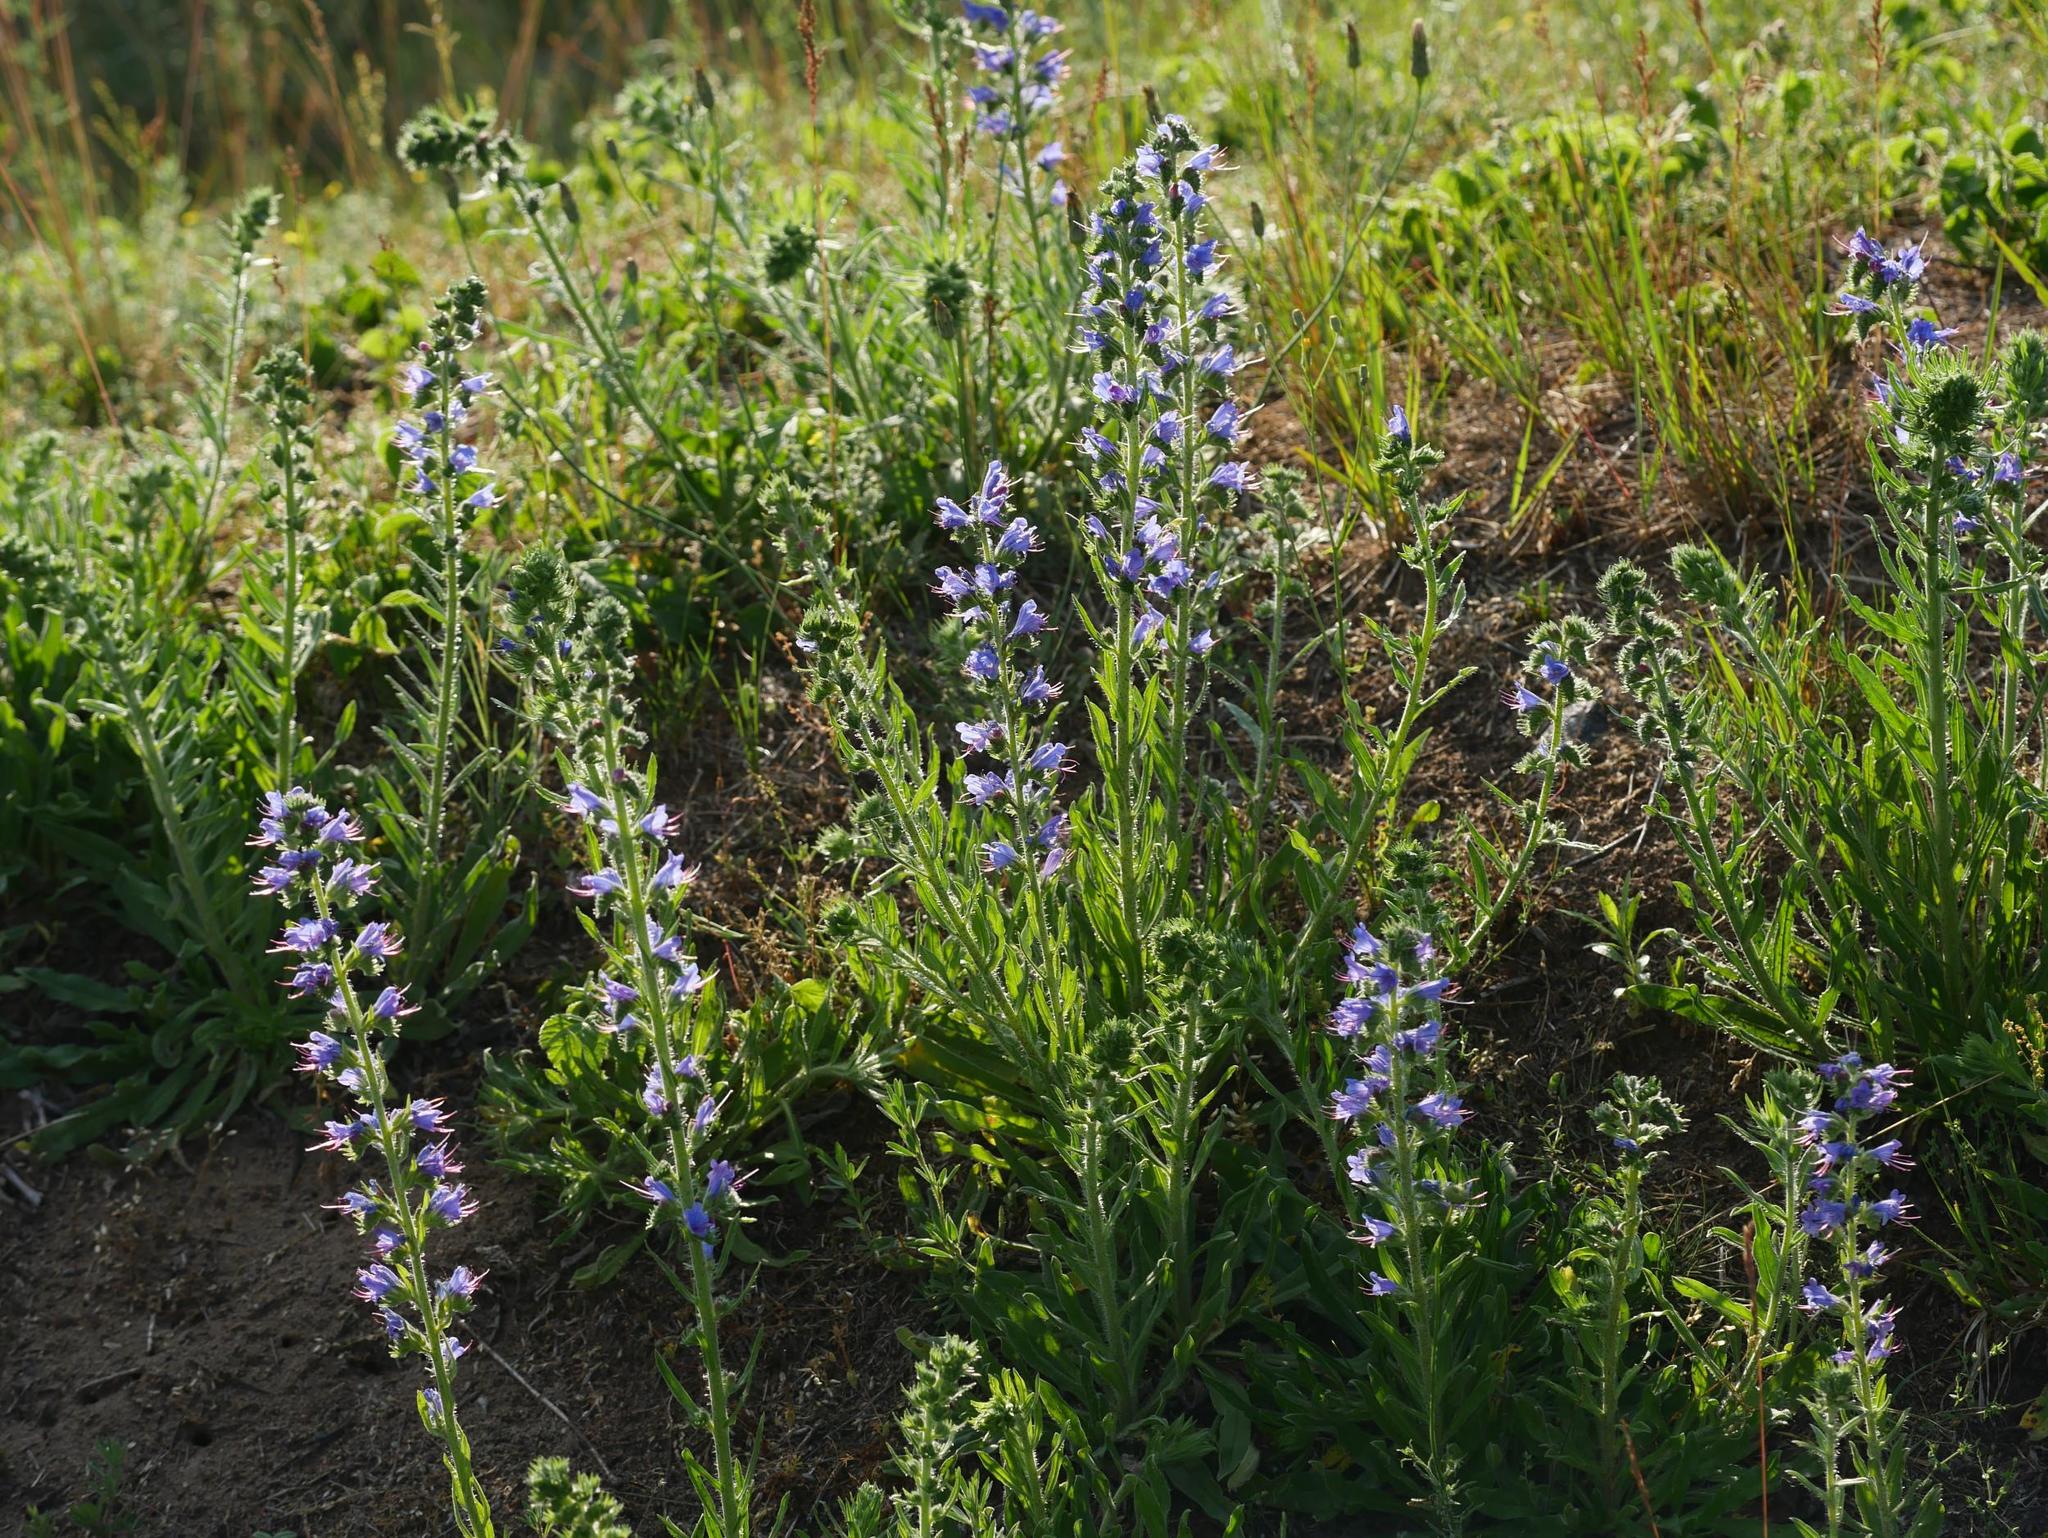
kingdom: Plantae
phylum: Tracheophyta
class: Magnoliopsida
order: Boraginales
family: Boraginaceae
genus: Echium
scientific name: Echium vulgare
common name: Common viper's bugloss
